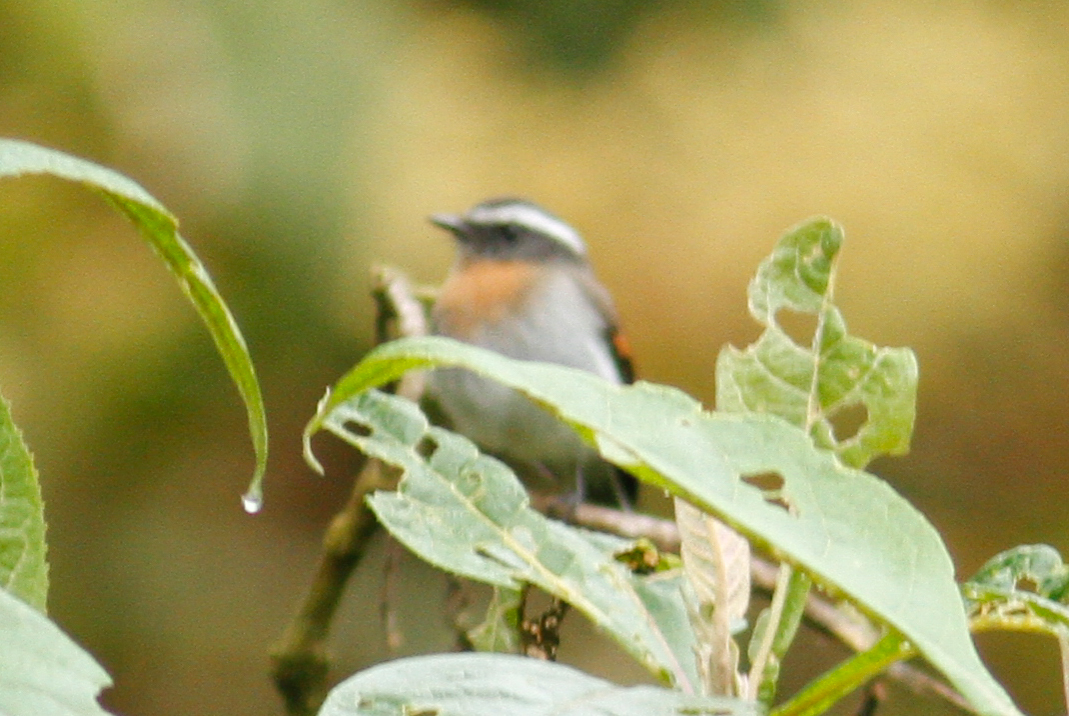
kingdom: Animalia
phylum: Chordata
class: Aves
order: Passeriformes
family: Tyrannidae
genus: Ochthoeca
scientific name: Ochthoeca rufipectoralis
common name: Rufous-breasted chat-tyrant
